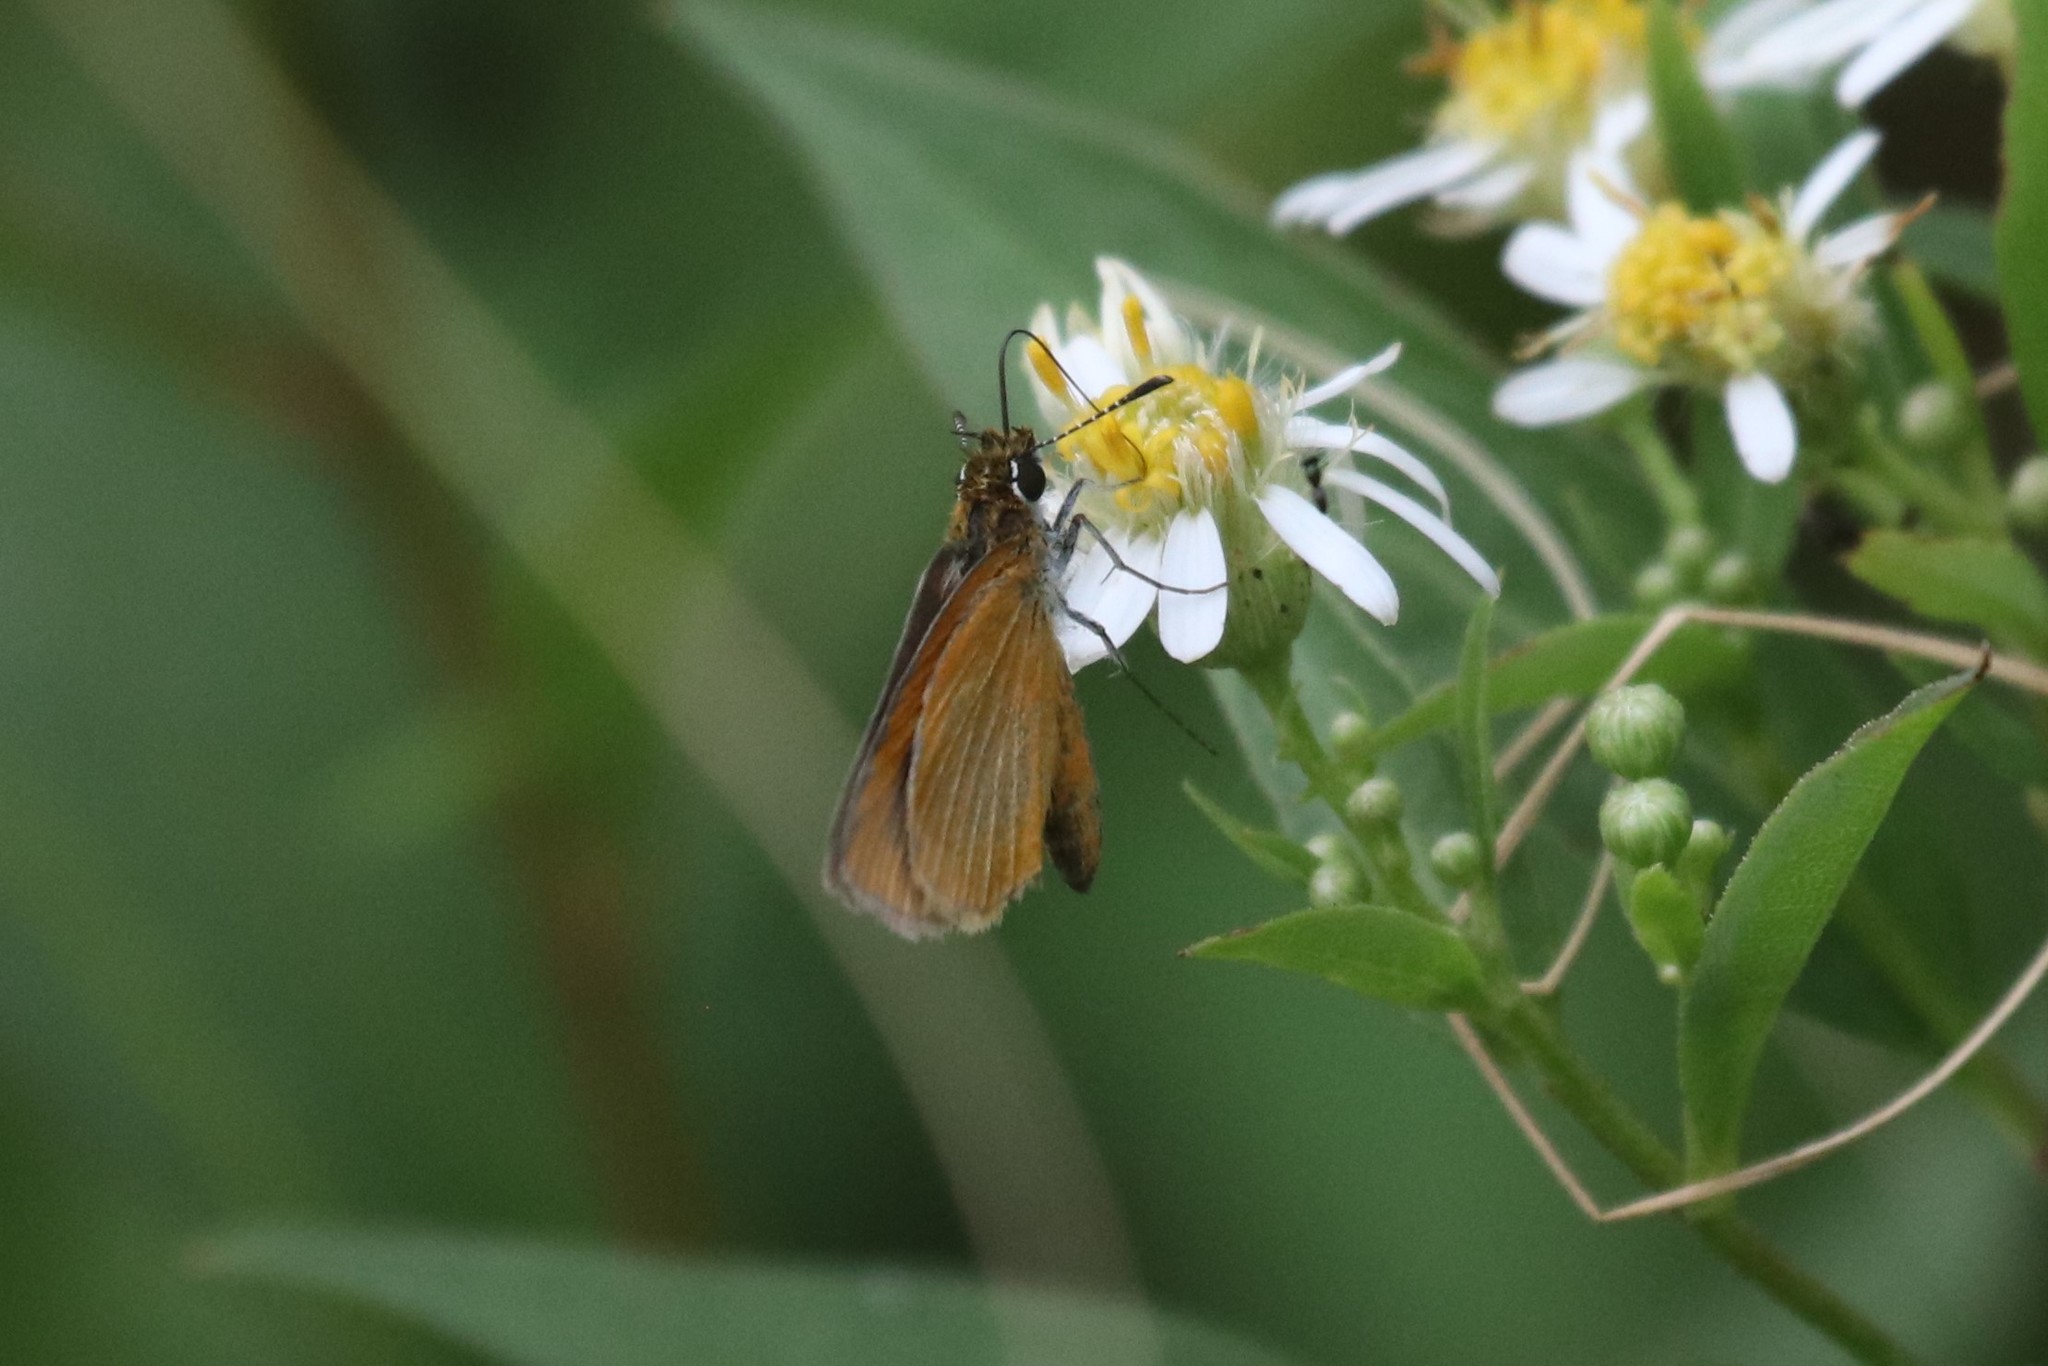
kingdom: Animalia
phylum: Arthropoda
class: Insecta
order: Lepidoptera
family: Hesperiidae
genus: Ancyloxypha
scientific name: Ancyloxypha numitor
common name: Least skipper
